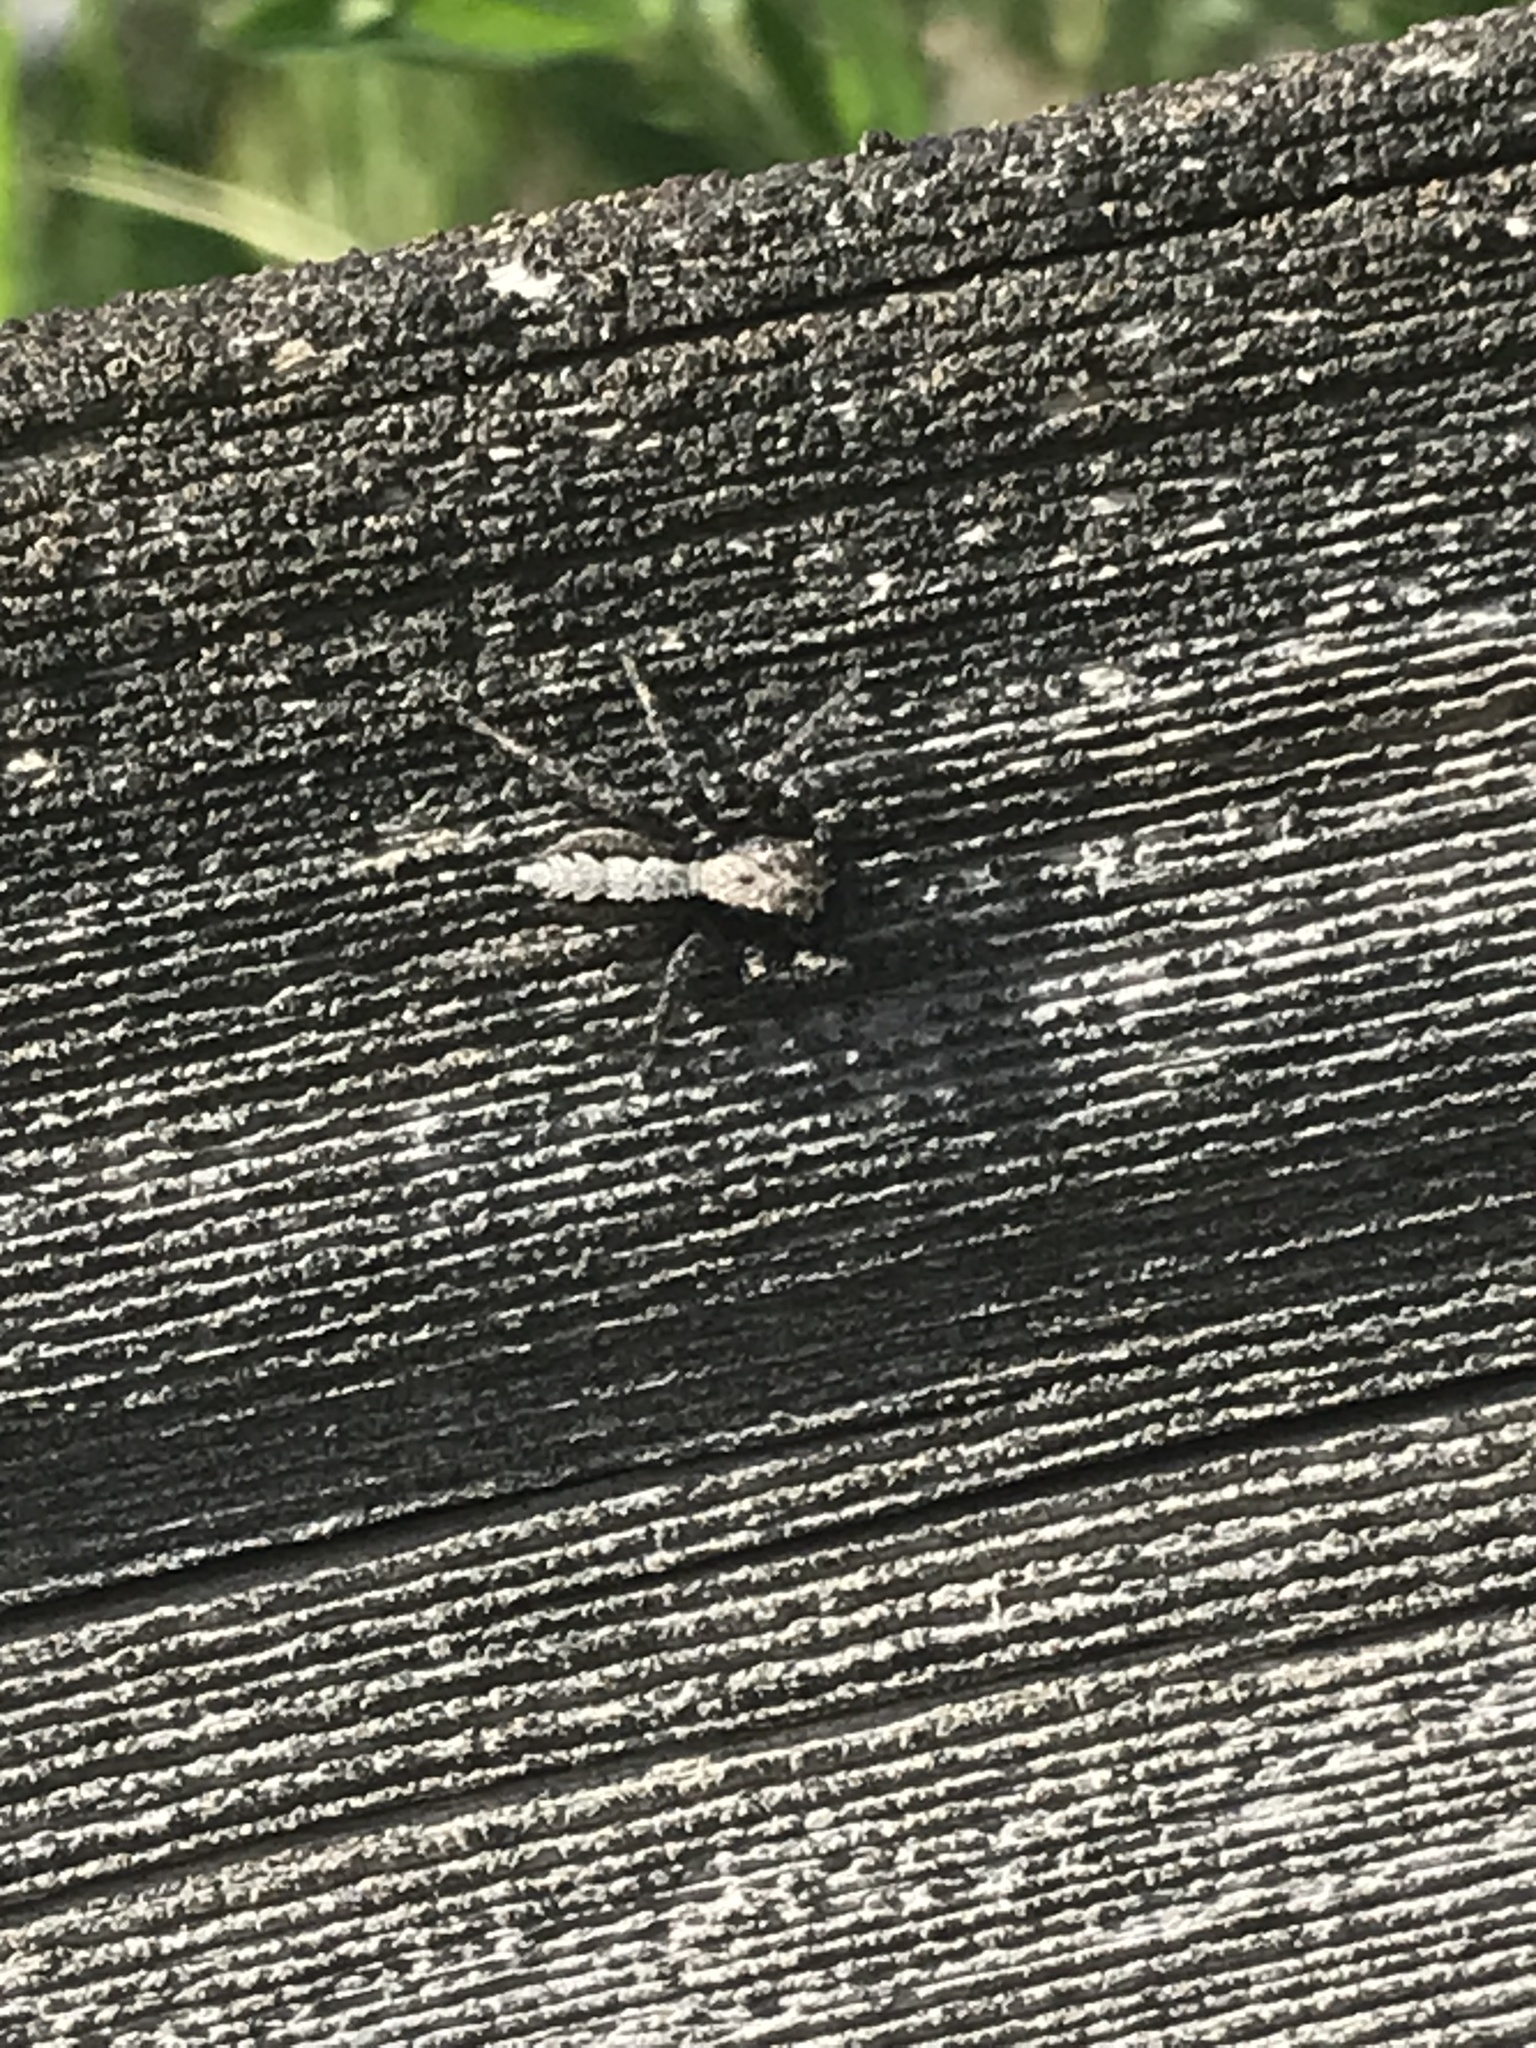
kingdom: Animalia
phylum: Arthropoda
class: Arachnida
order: Araneae
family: Salticidae
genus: Platycryptus
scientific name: Platycryptus californicus
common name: Jumping spiders
